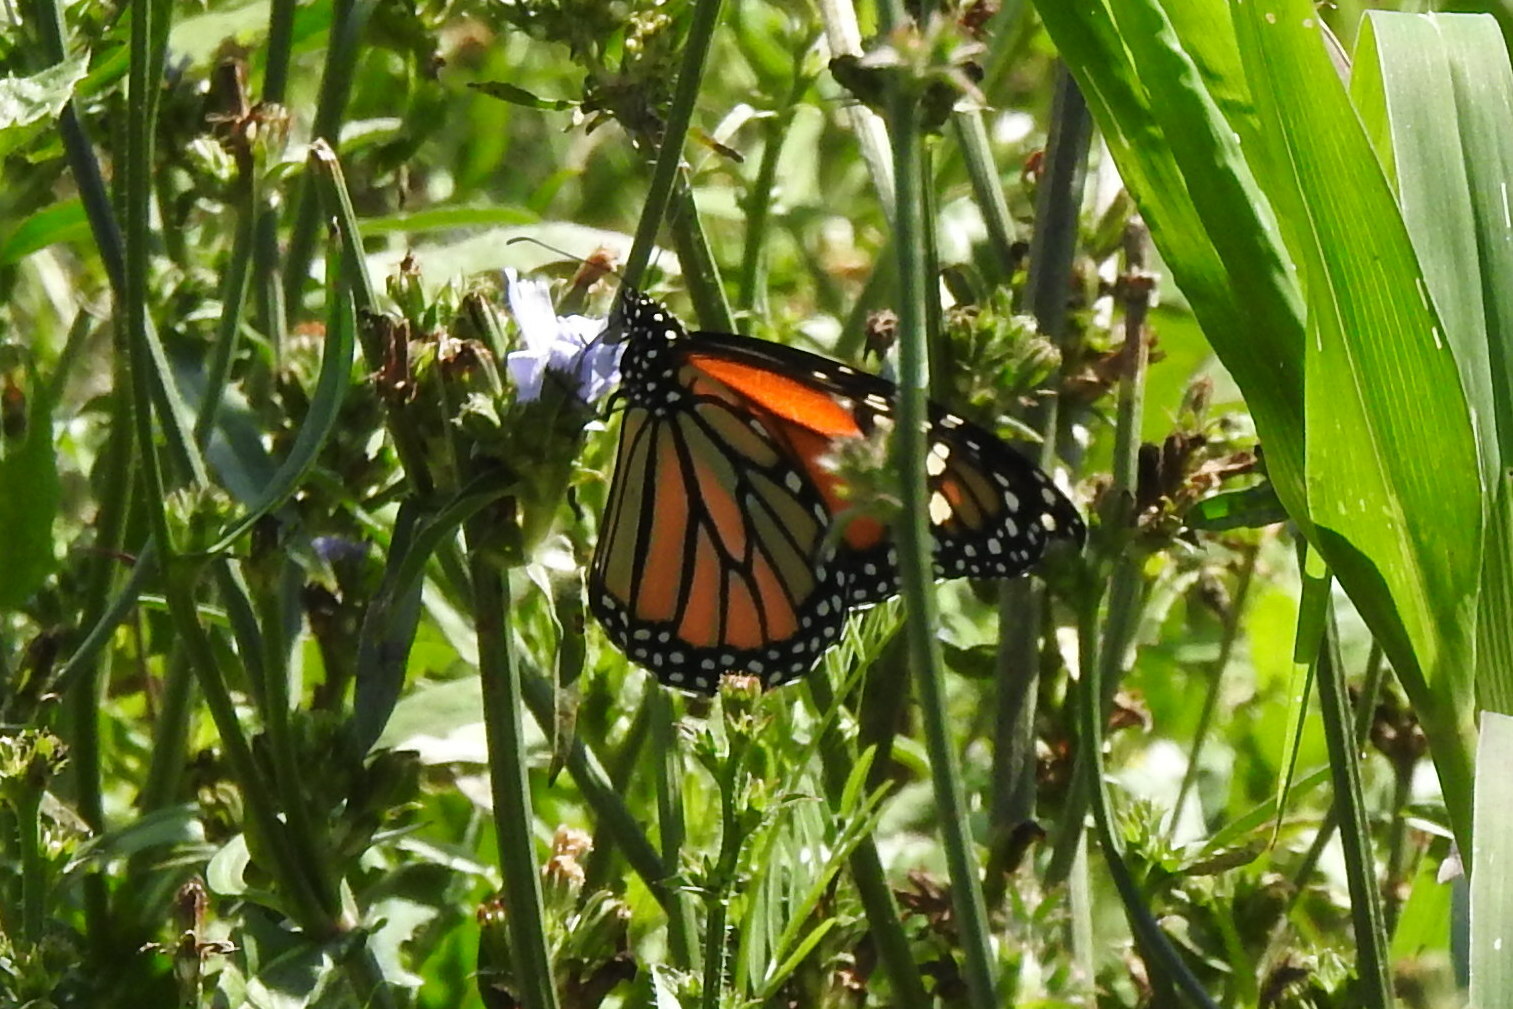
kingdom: Animalia
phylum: Arthropoda
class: Insecta
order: Lepidoptera
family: Nymphalidae
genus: Danaus
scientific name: Danaus plexippus
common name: Monarch
